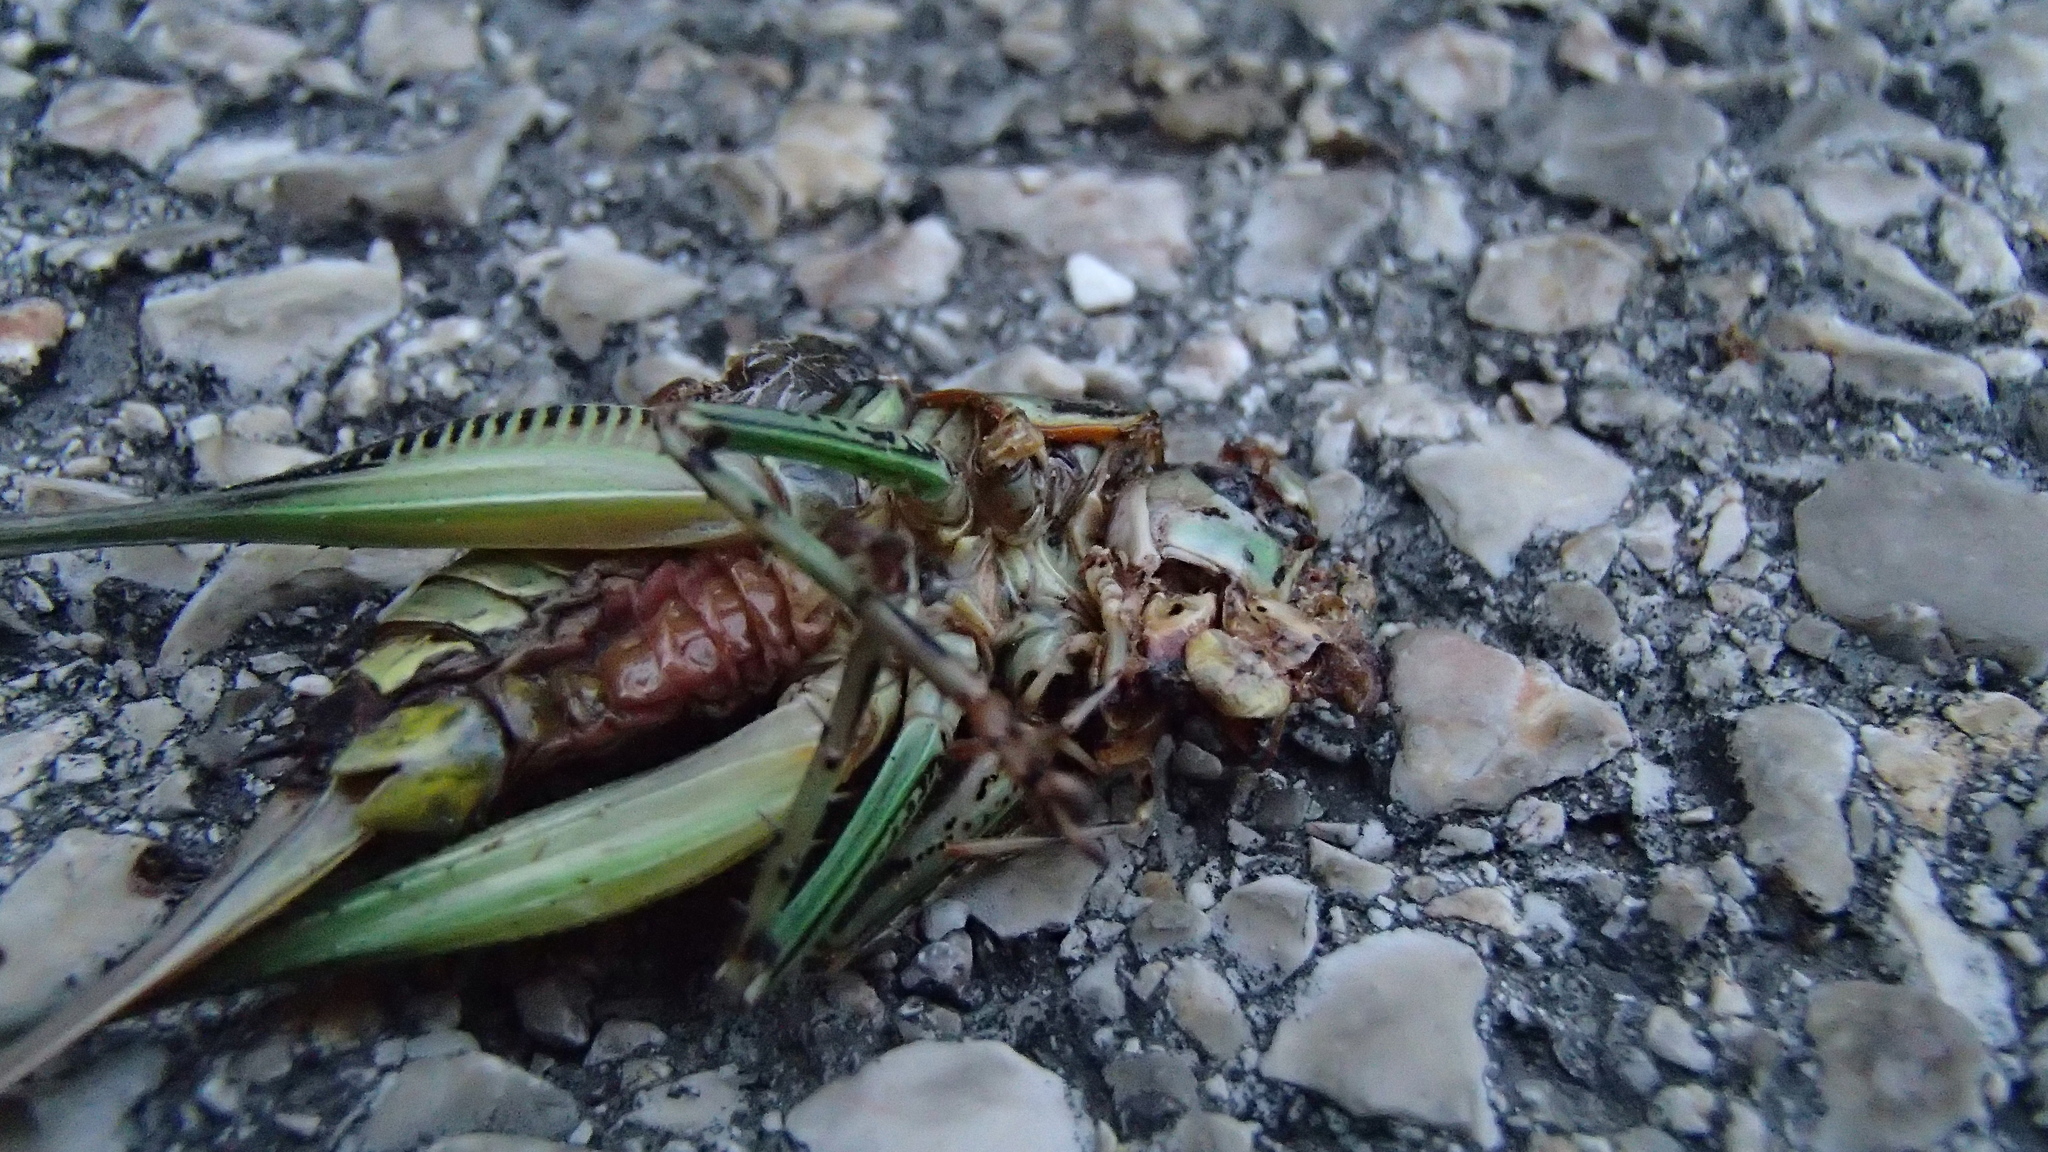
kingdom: Animalia
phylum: Arthropoda
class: Insecta
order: Orthoptera
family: Tettigoniidae
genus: Eupholidoptera
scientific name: Eupholidoptera schmidti
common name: Schmidt's marbled bush-cricket
